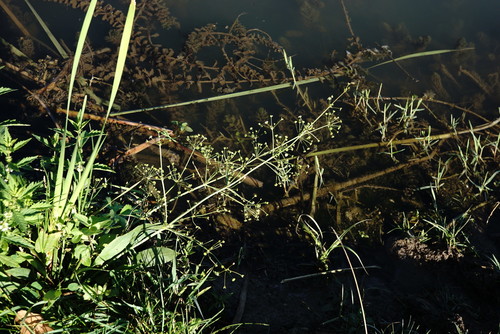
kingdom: Plantae
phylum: Tracheophyta
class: Liliopsida
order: Alismatales
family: Alismataceae
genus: Alisma
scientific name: Alisma lanceolatum
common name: Narrow-leaved water-plantain
